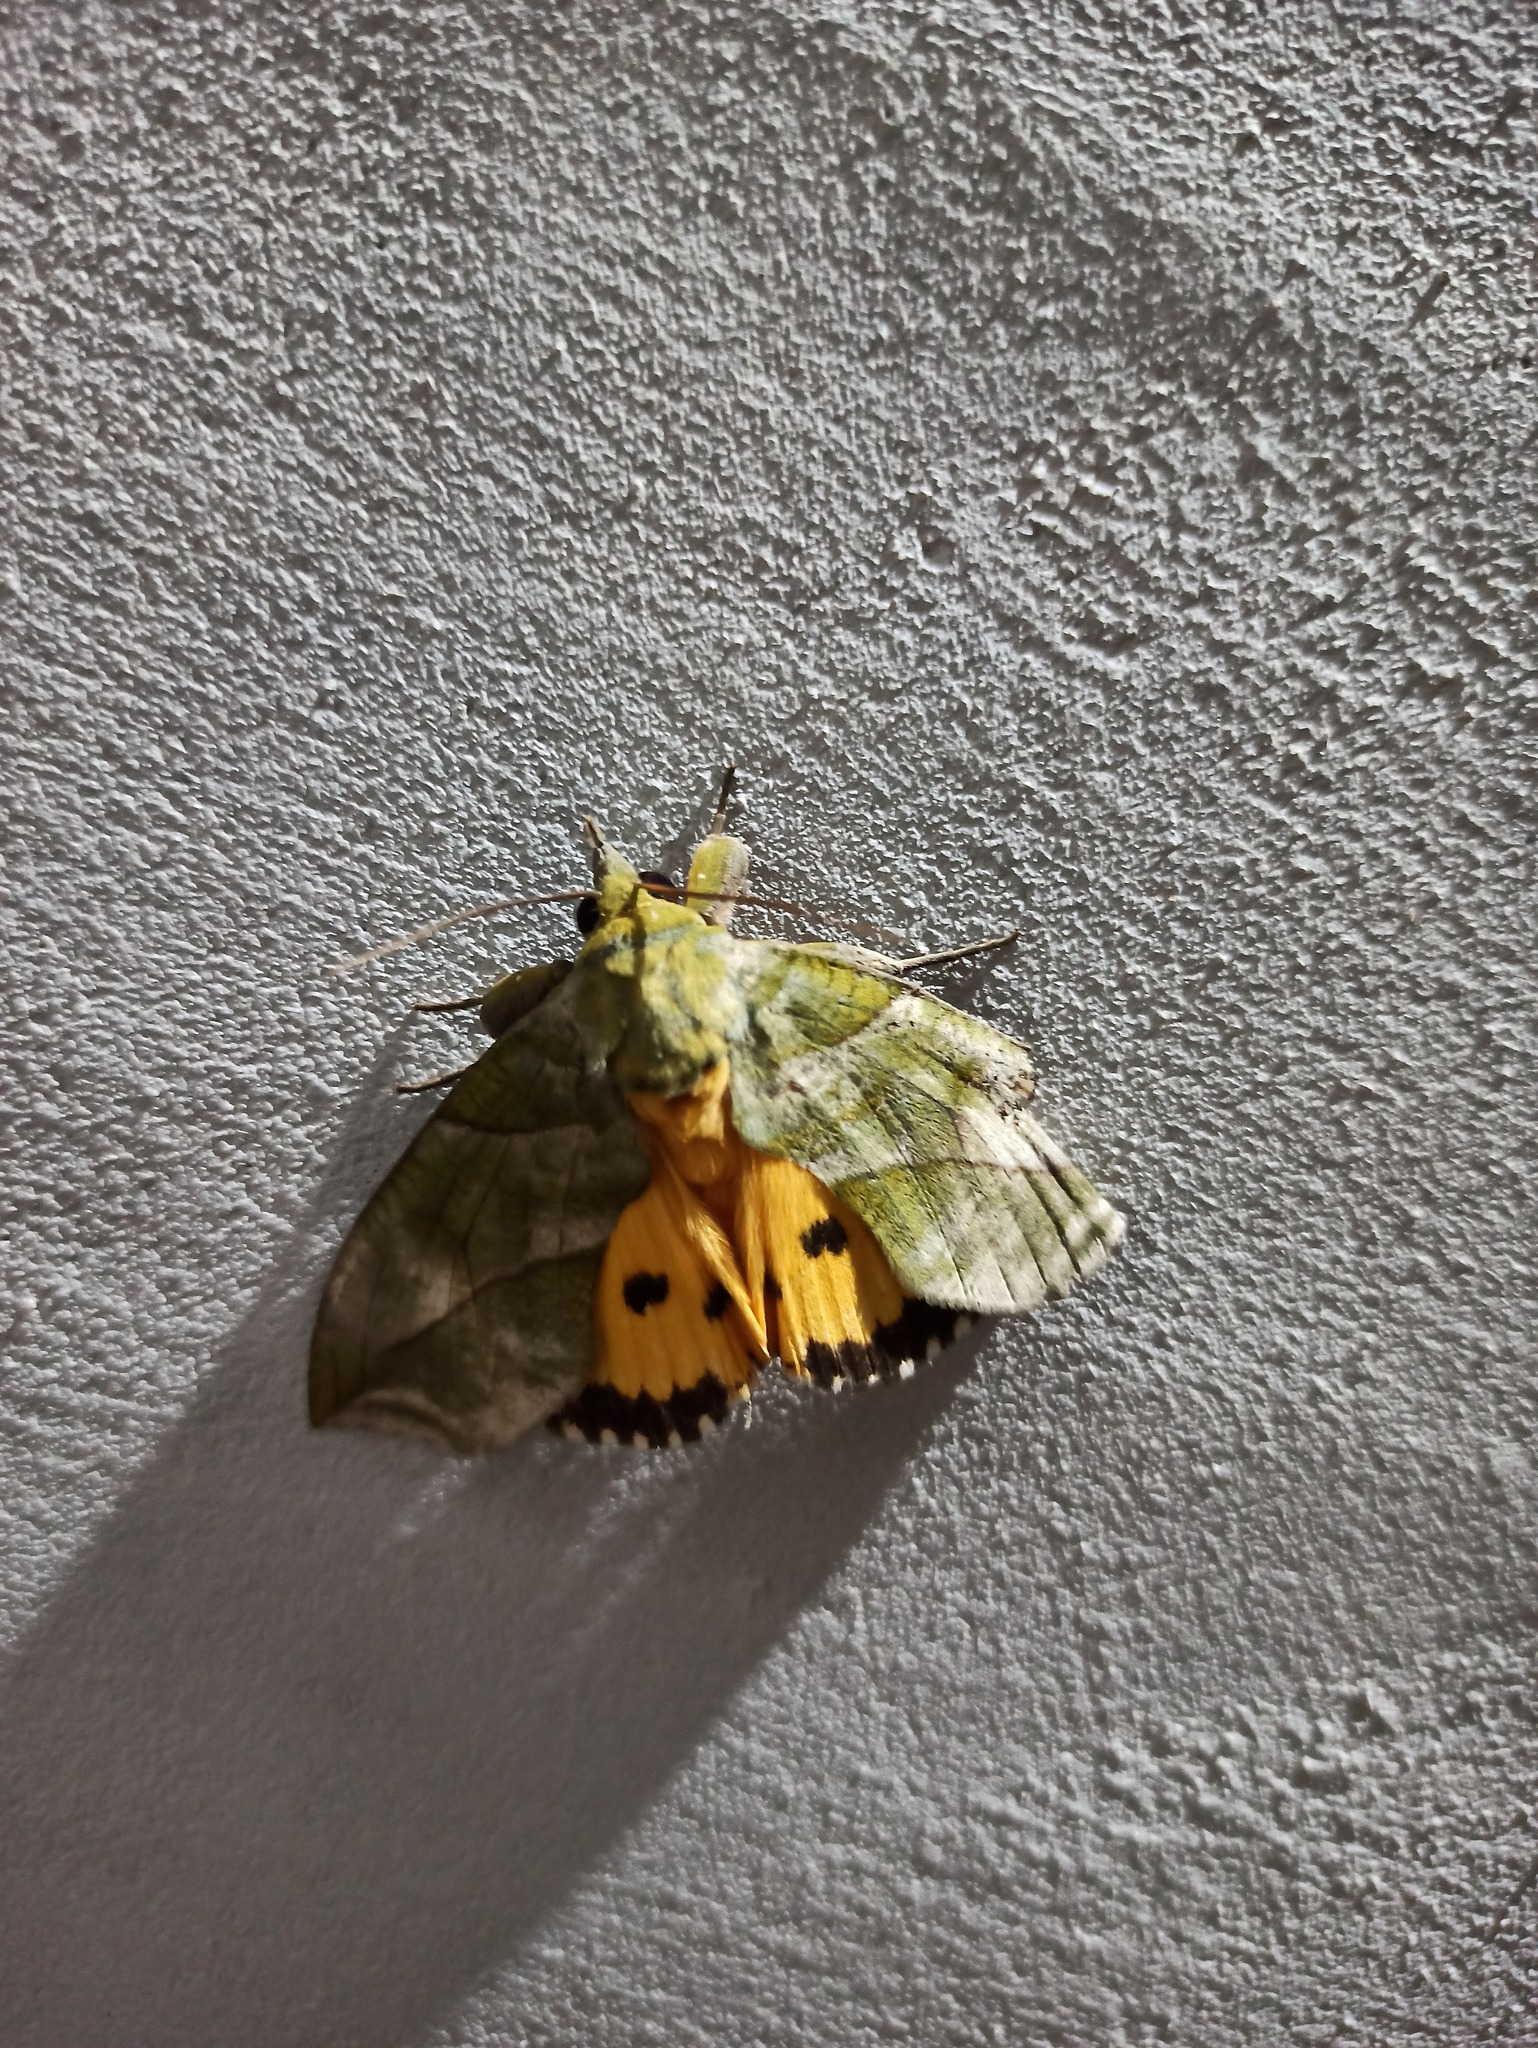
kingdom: Animalia
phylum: Arthropoda
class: Insecta
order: Lepidoptera
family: Erebidae
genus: Eudocima
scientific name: Eudocima hypermnestra
